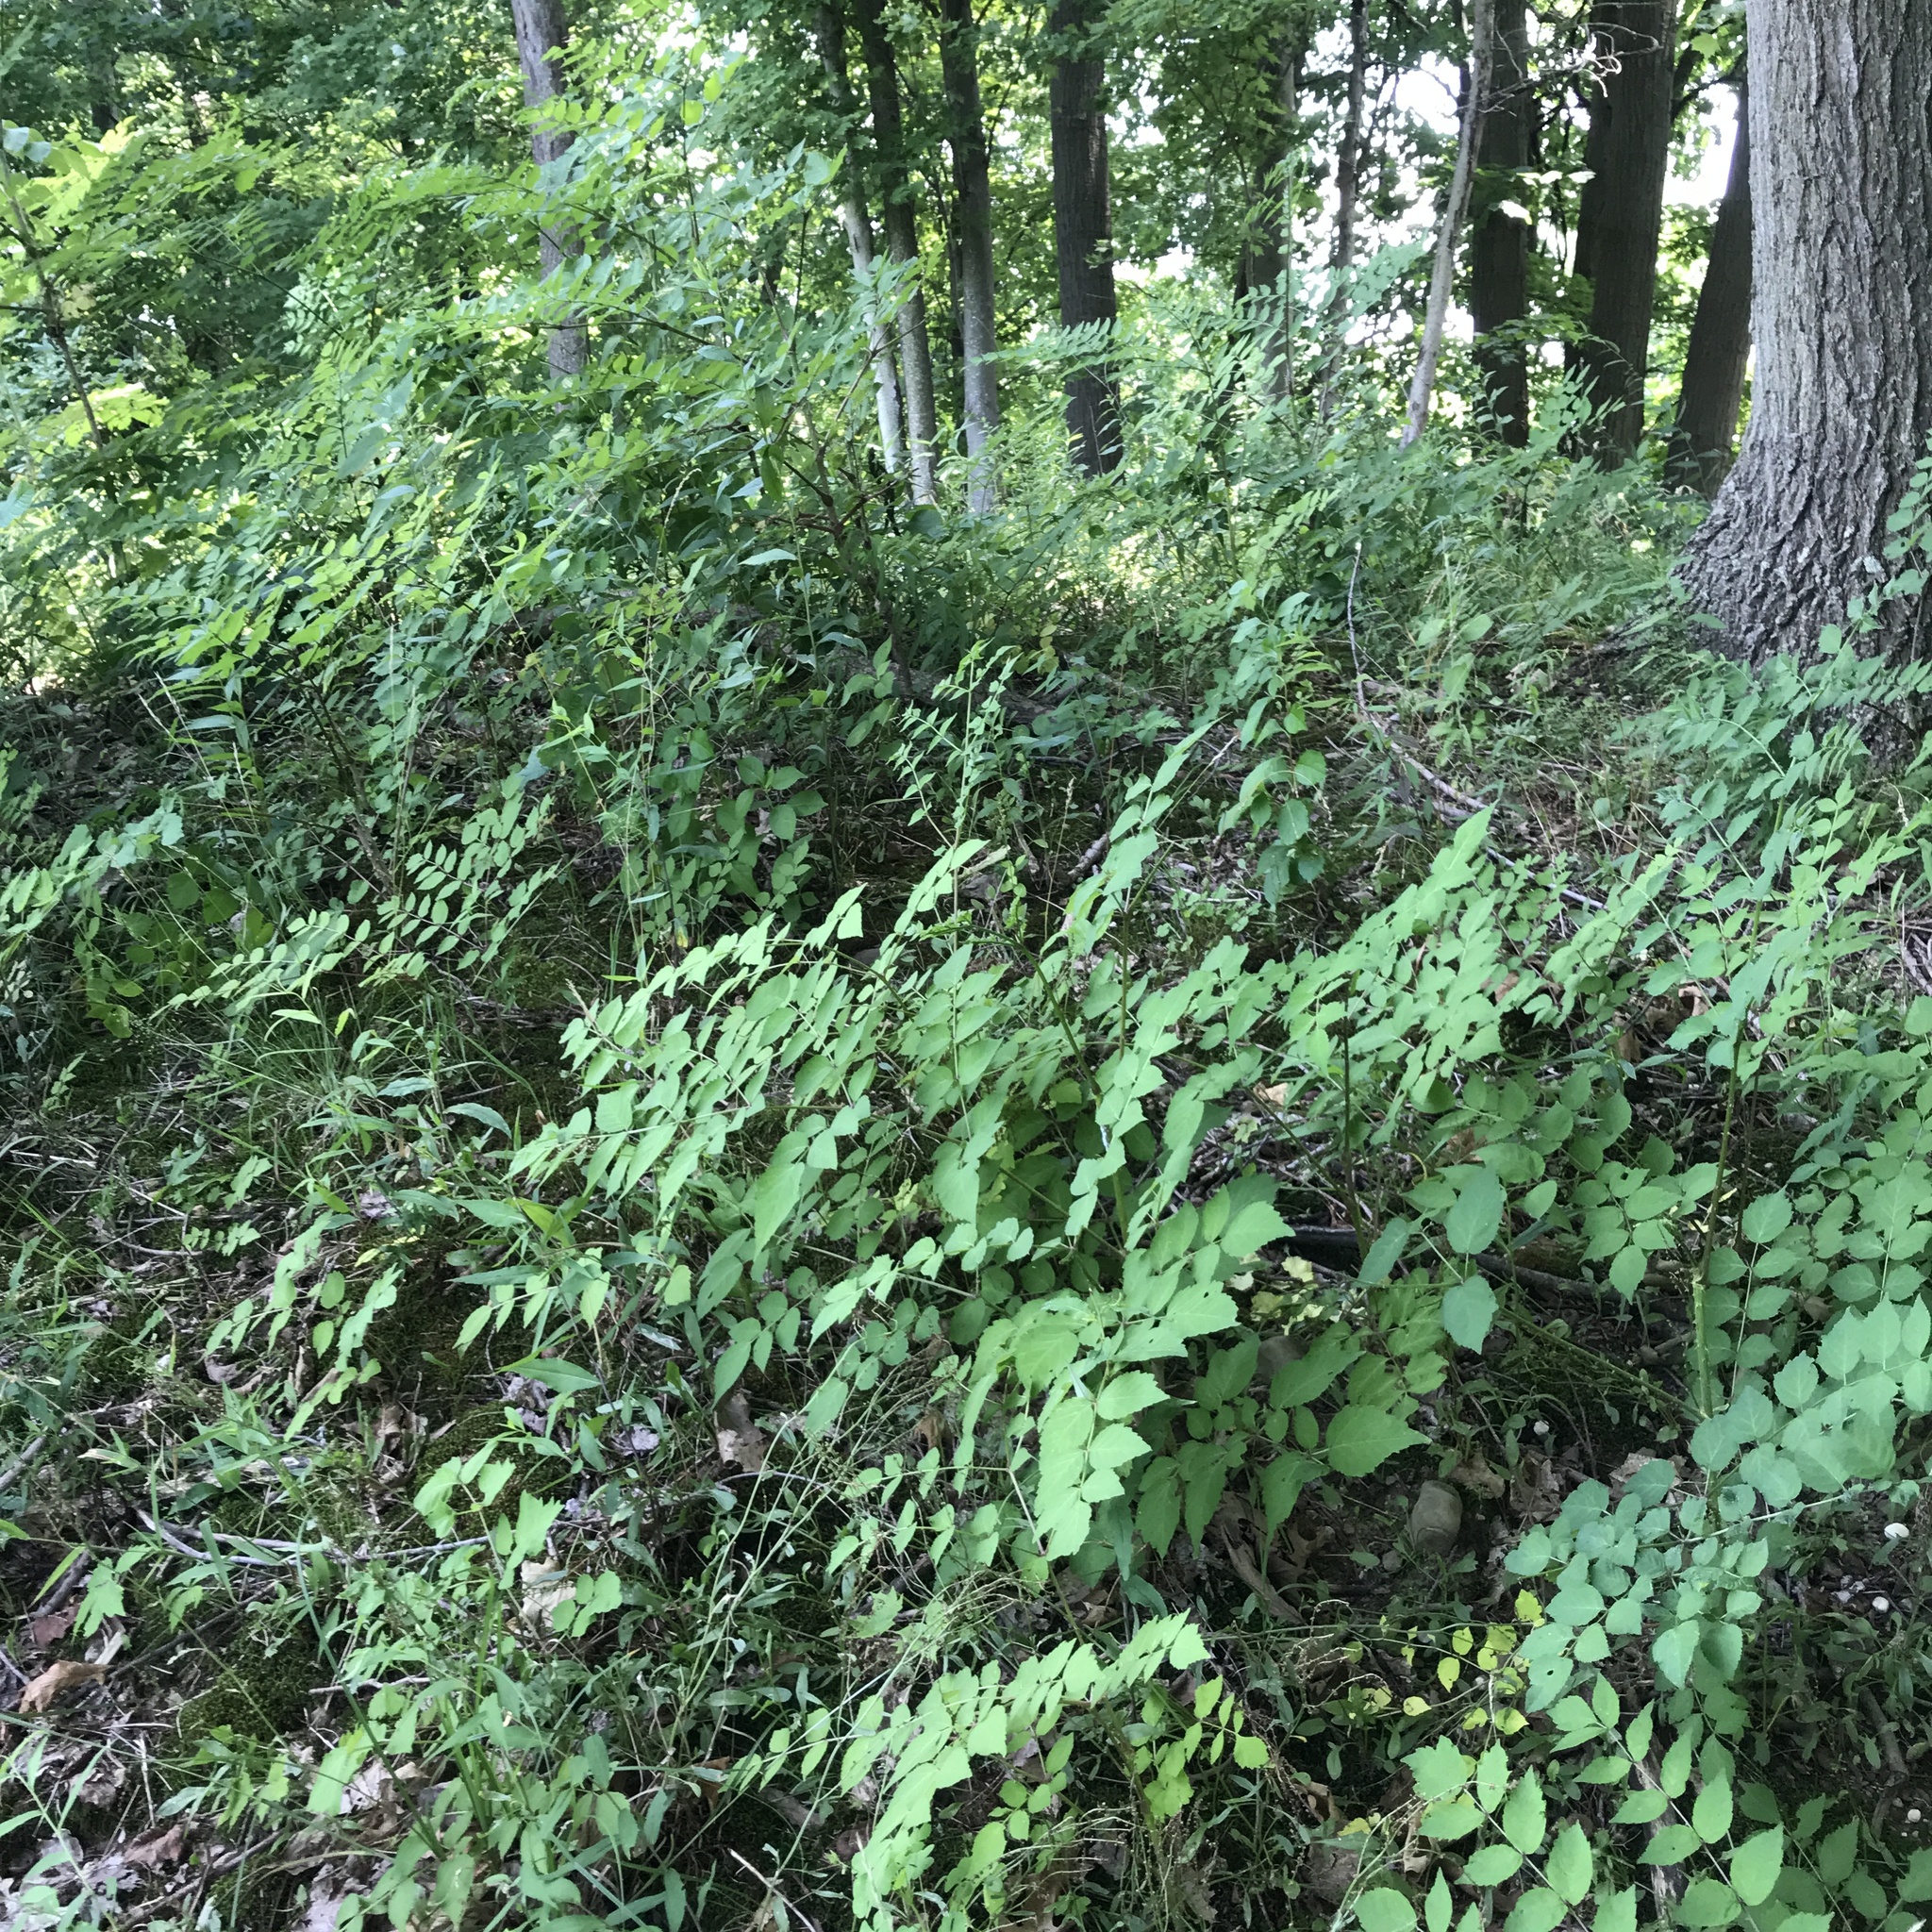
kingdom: Plantae
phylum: Tracheophyta
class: Magnoliopsida
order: Apiales
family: Araliaceae
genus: Aralia
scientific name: Aralia elata
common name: Japanese angelica-tree
